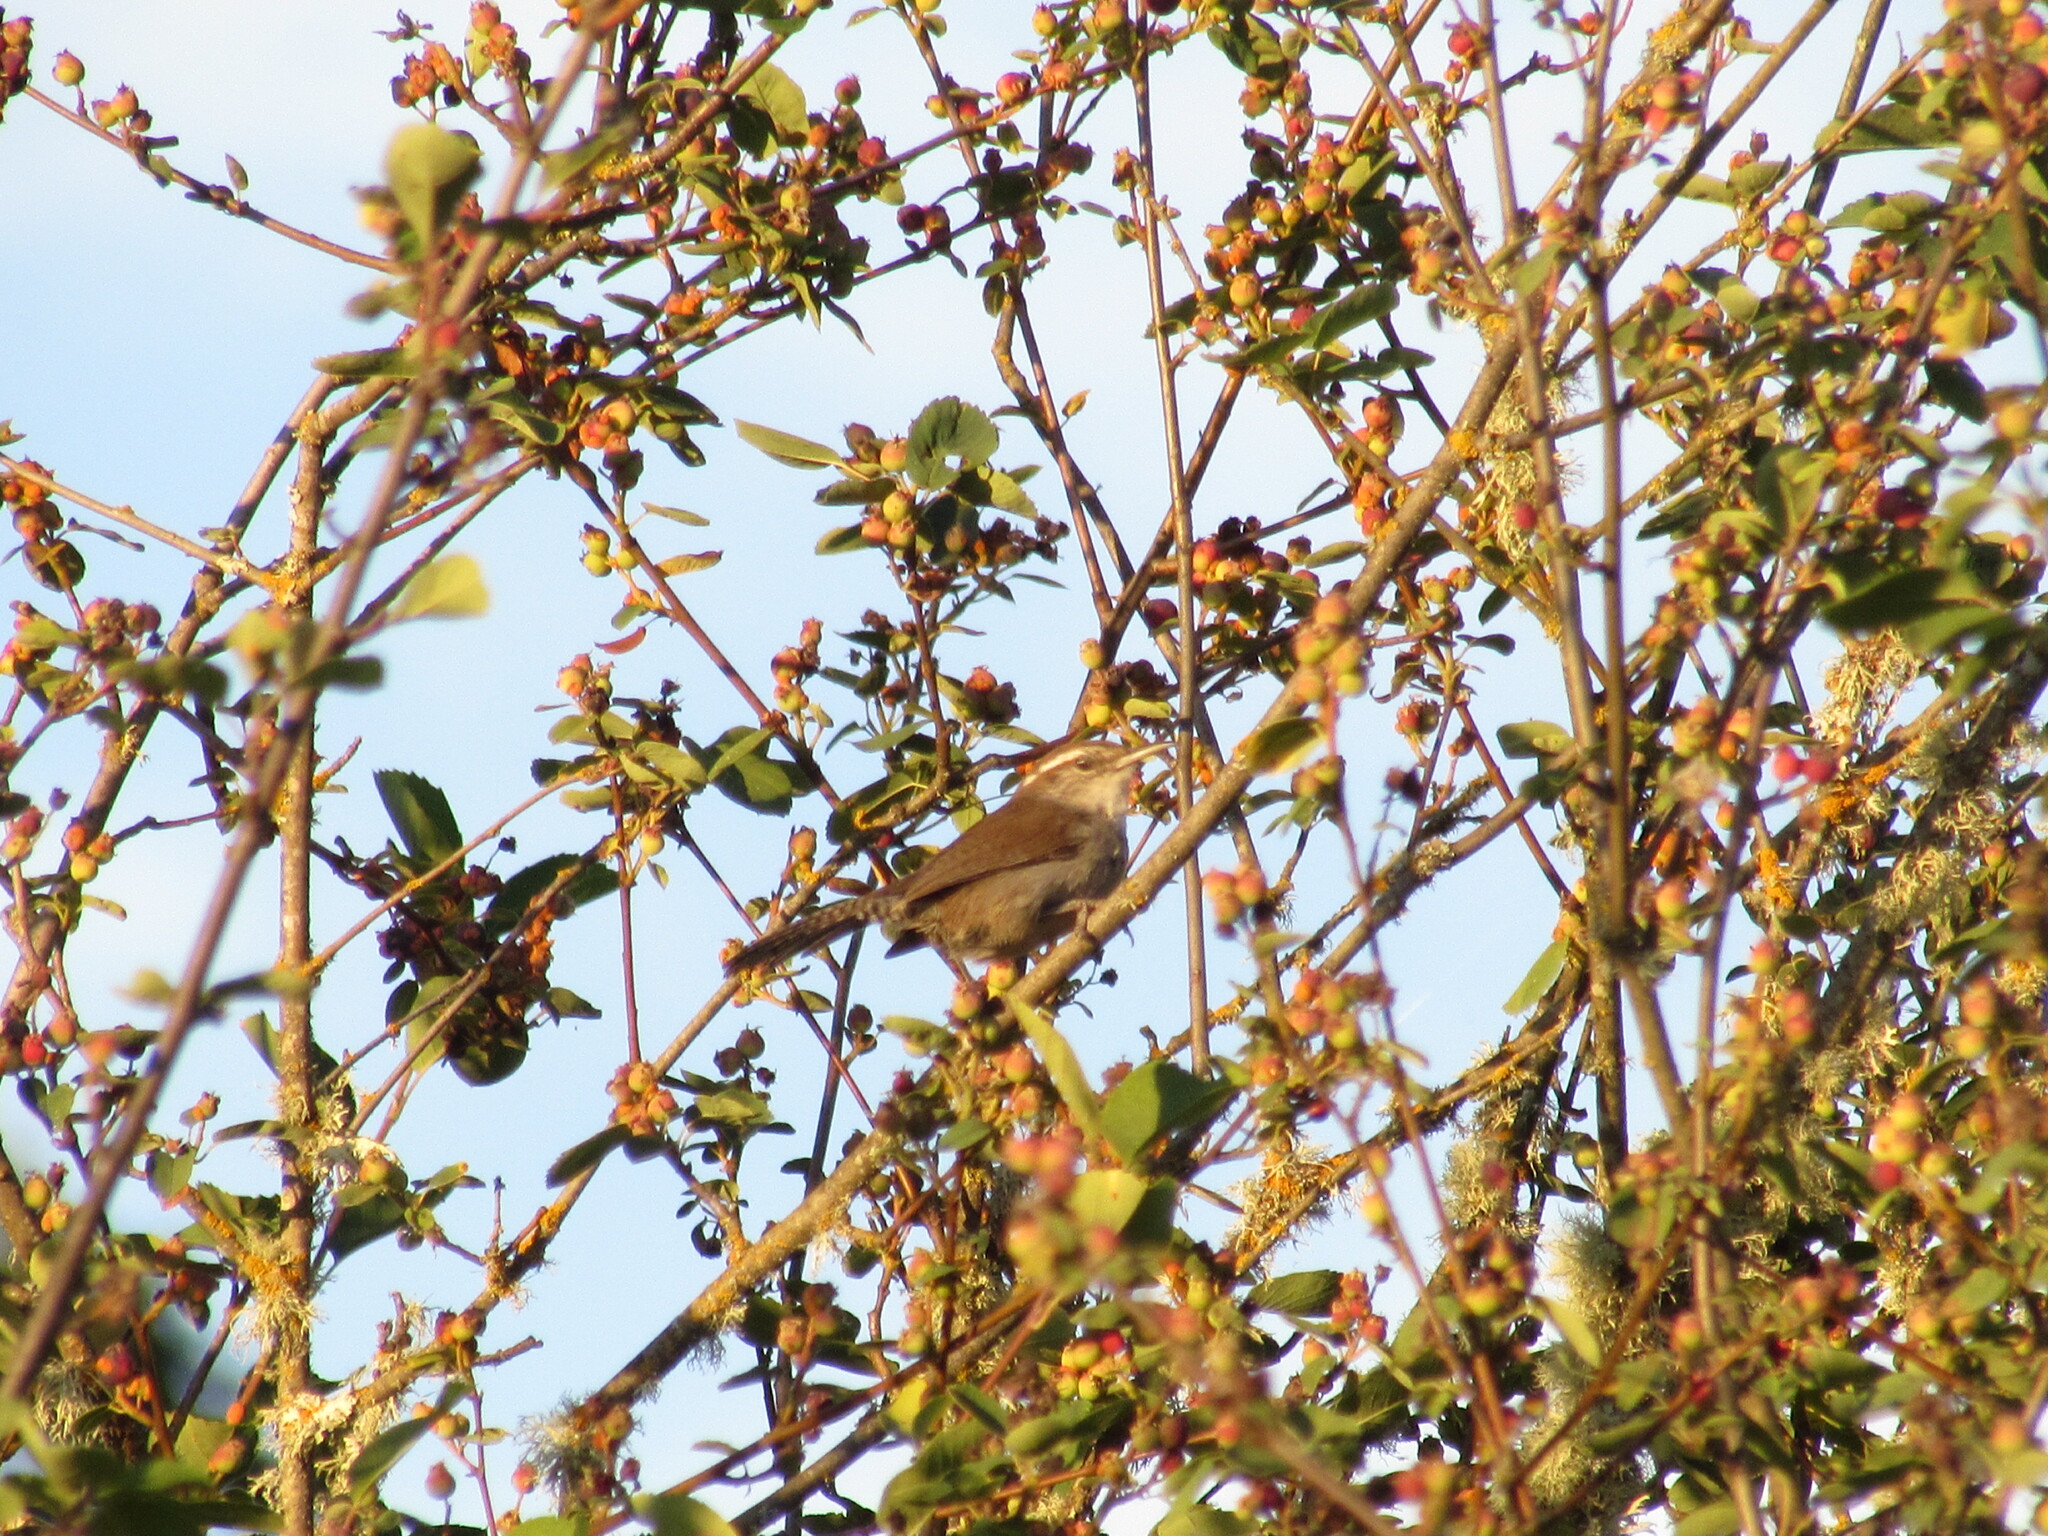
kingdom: Animalia
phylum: Chordata
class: Aves
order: Passeriformes
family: Troglodytidae
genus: Thryomanes
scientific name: Thryomanes bewickii
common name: Bewick's wren
